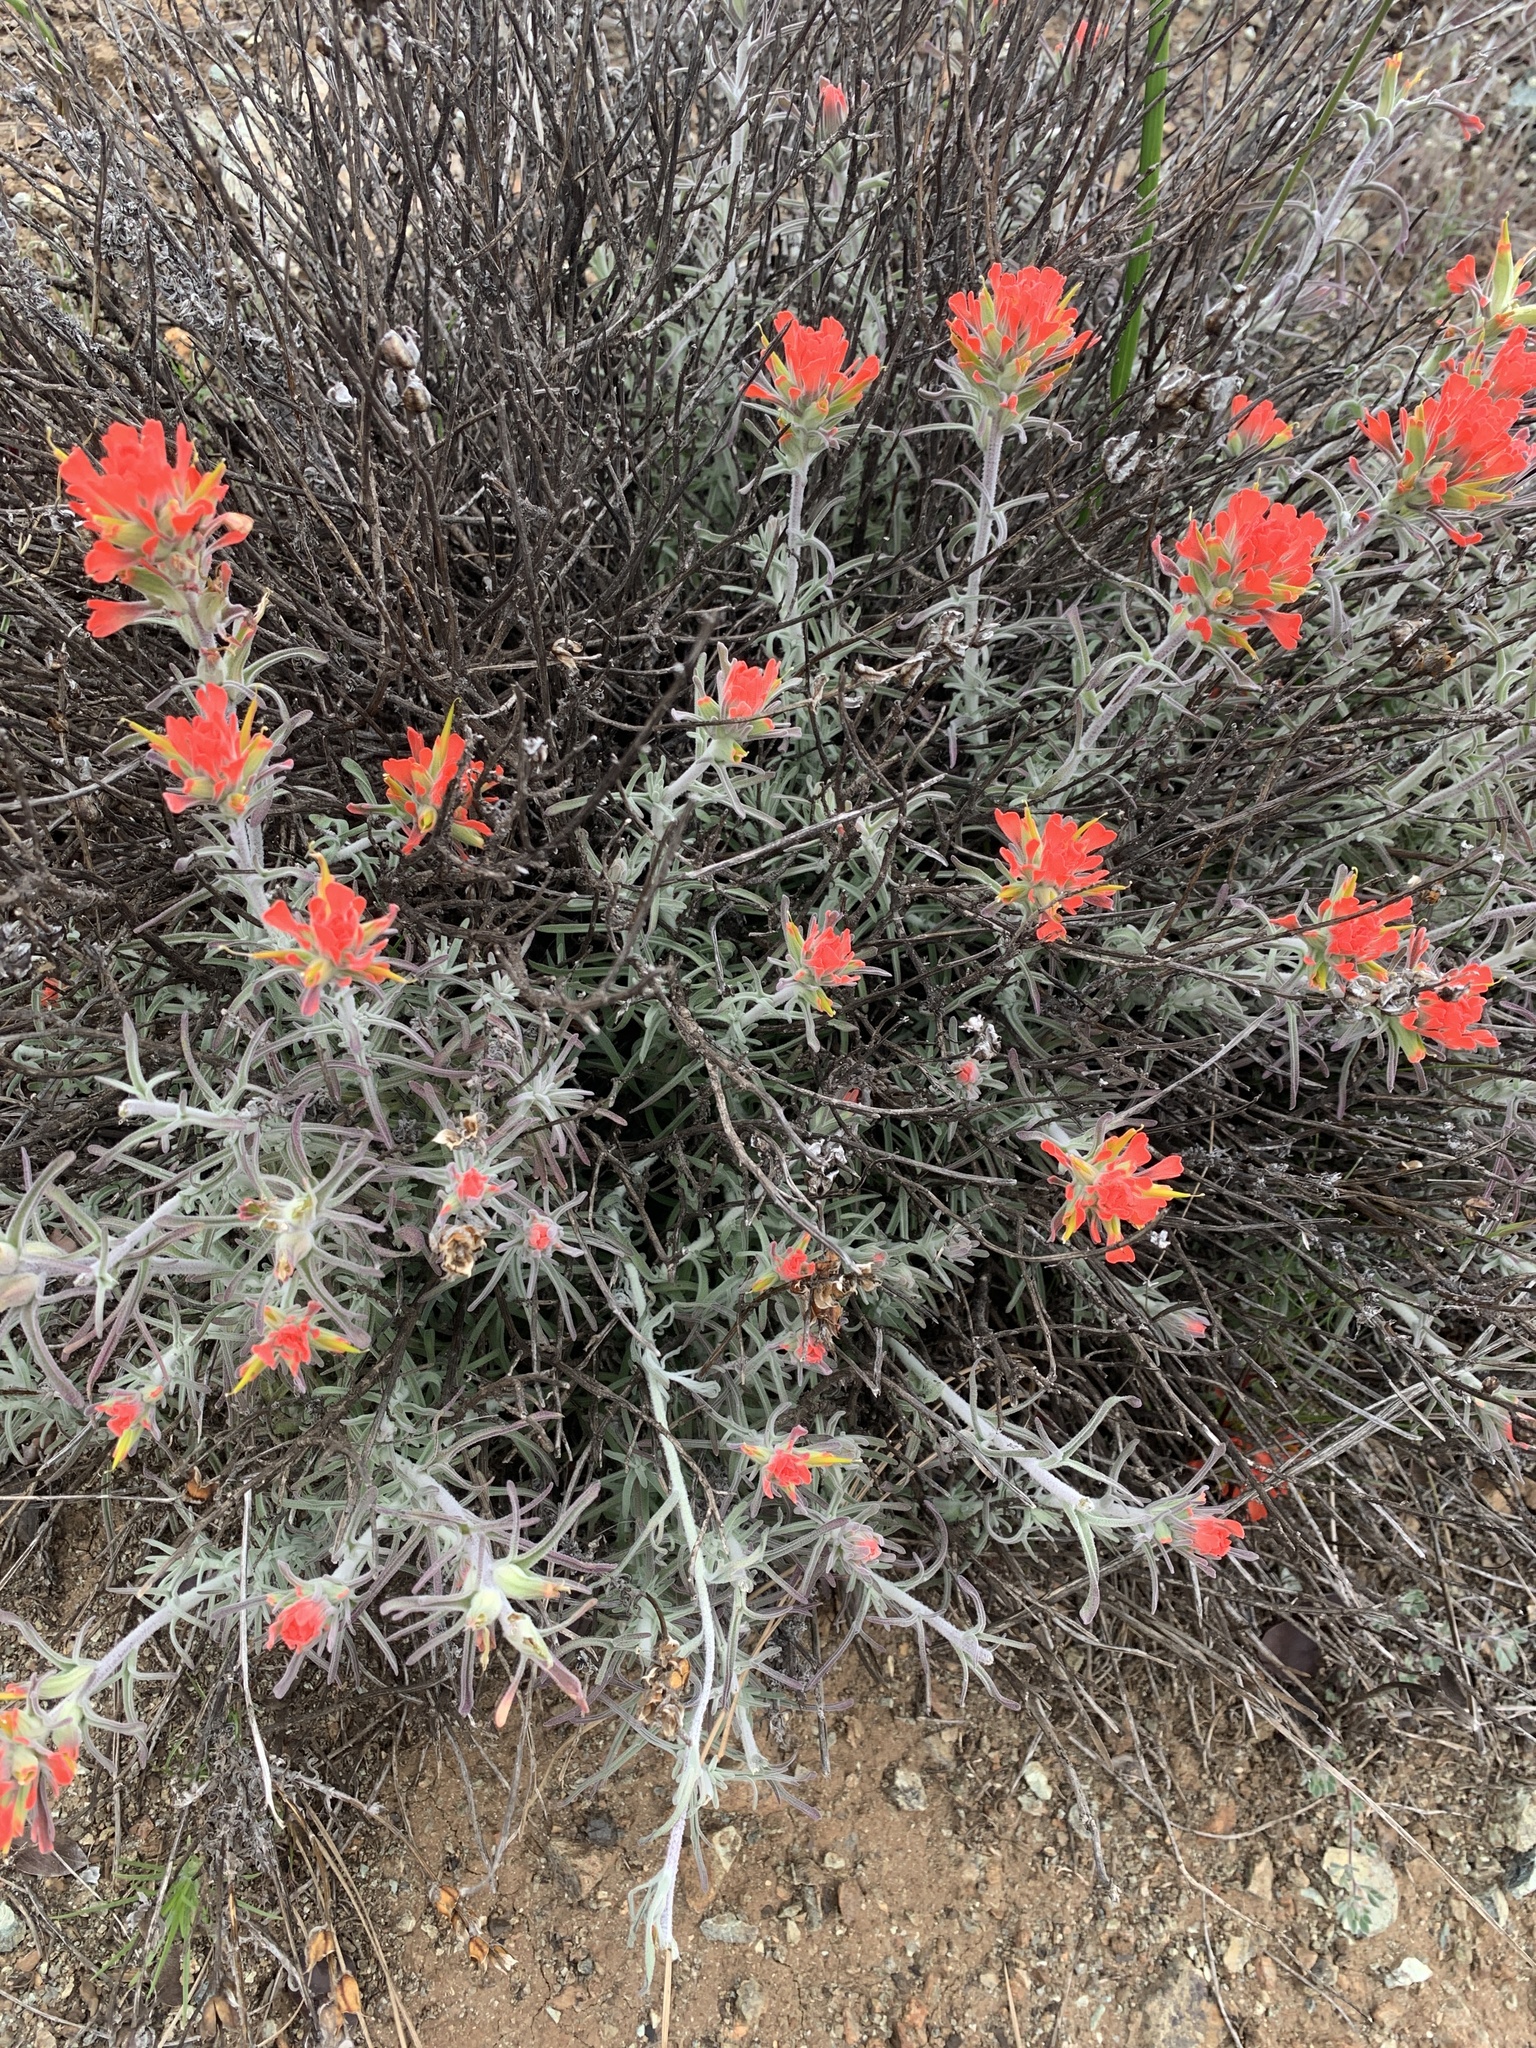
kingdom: Plantae
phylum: Tracheophyta
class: Magnoliopsida
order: Lamiales
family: Orobanchaceae
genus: Castilleja
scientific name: Castilleja foliolosa
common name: Woolly indian paintbrush
